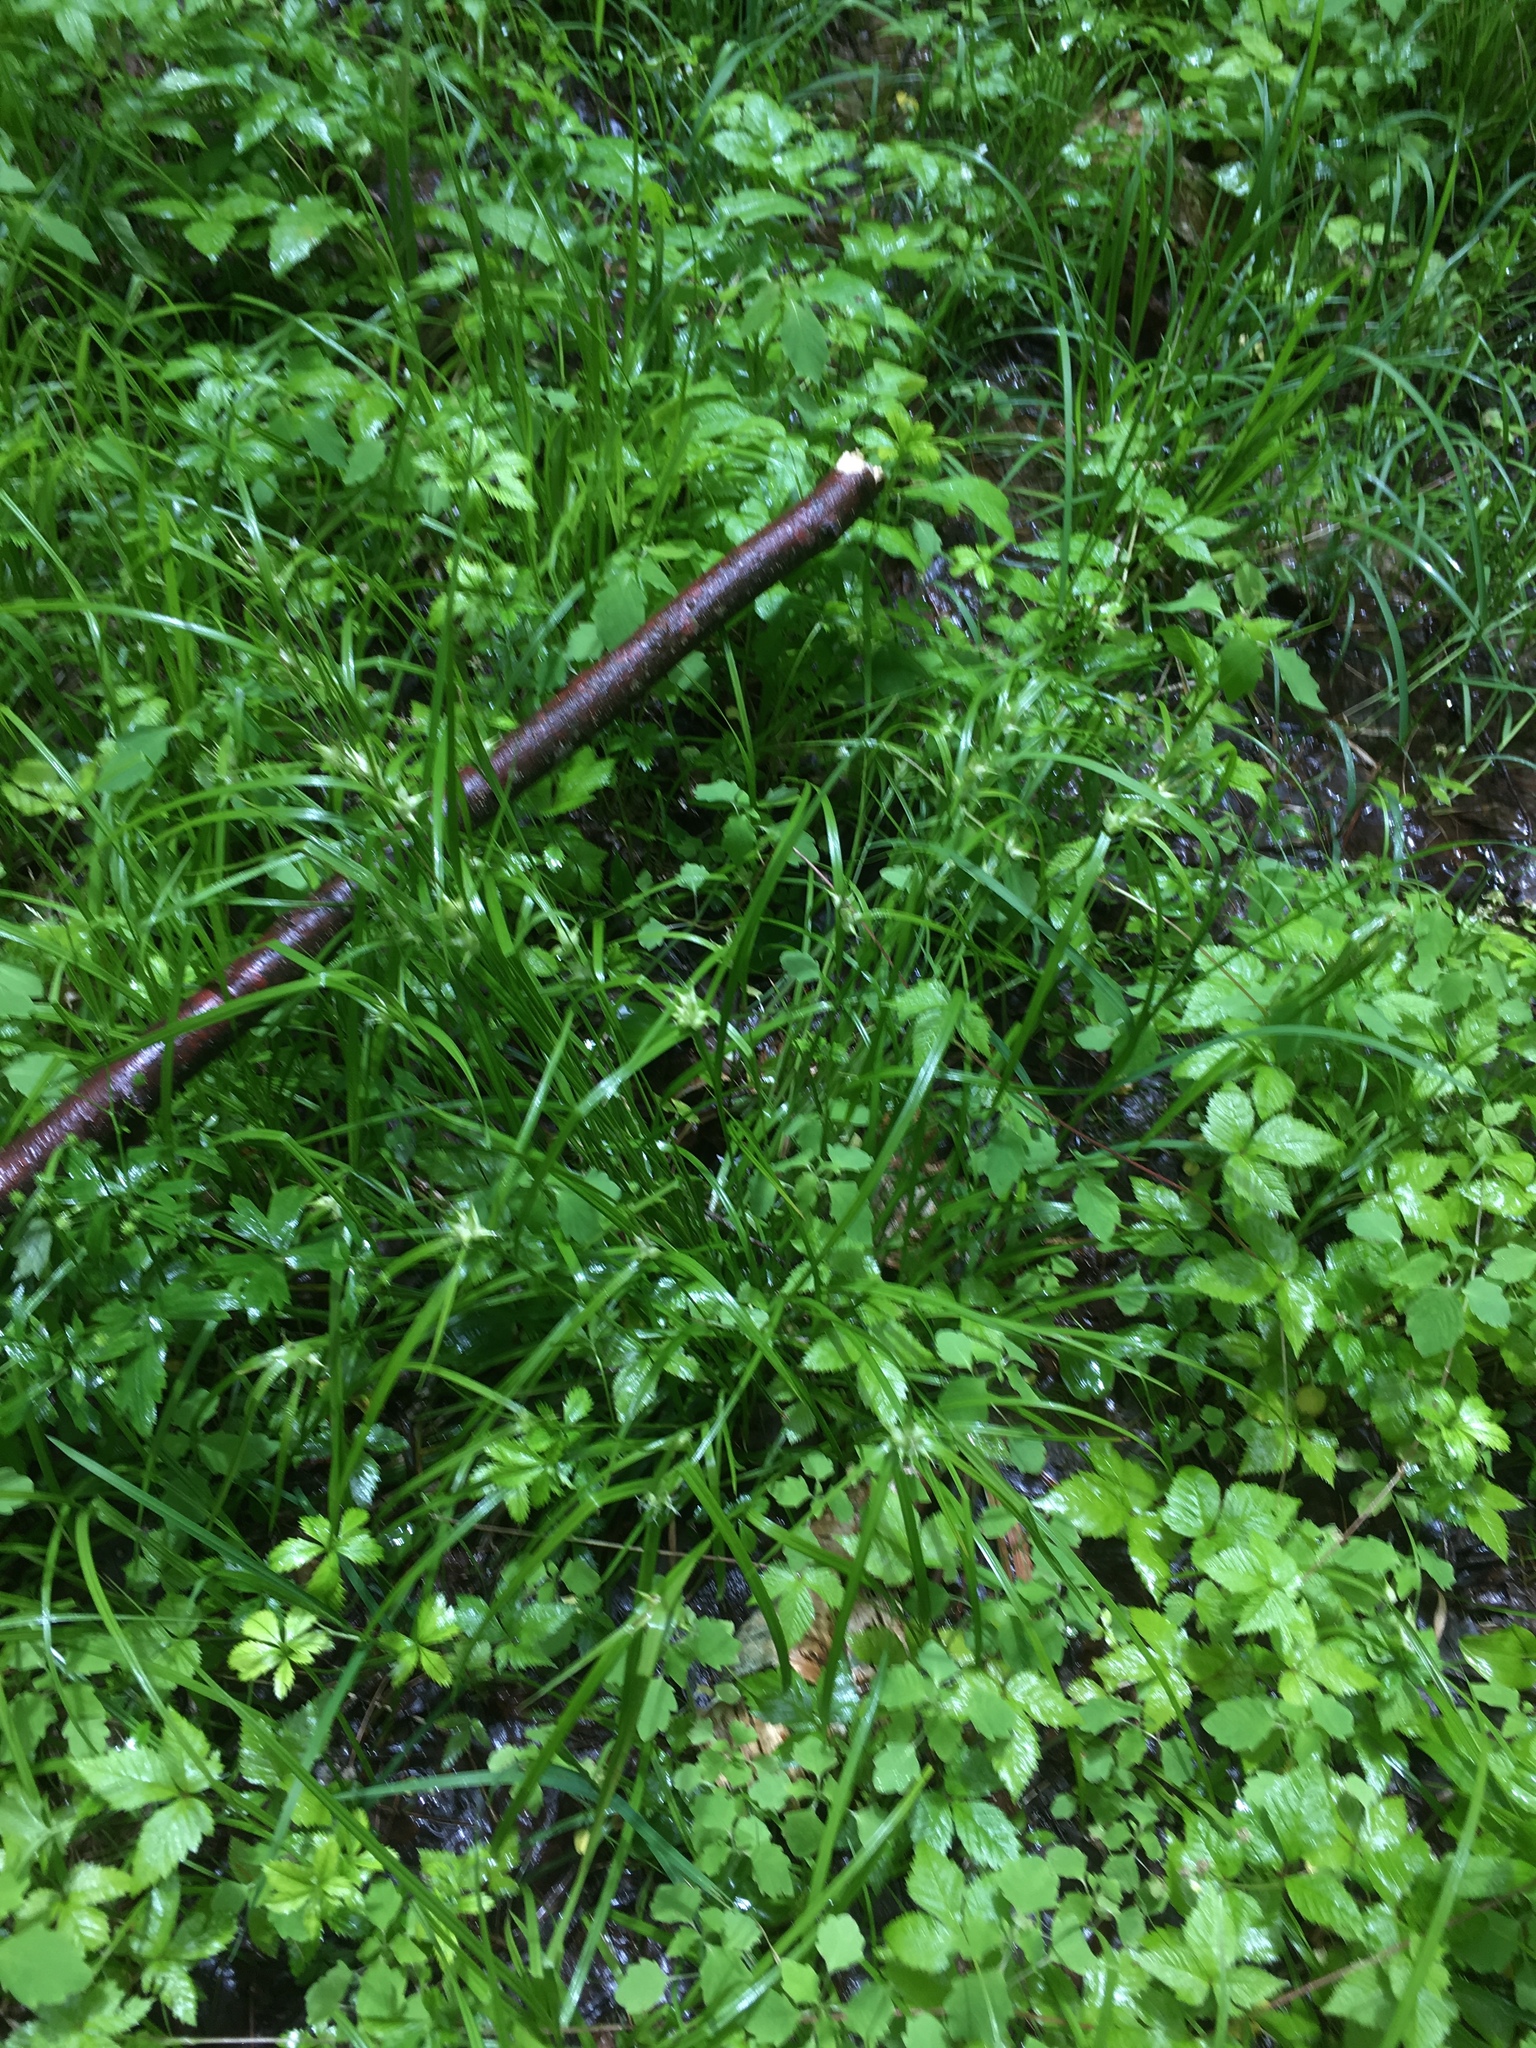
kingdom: Plantae
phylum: Tracheophyta
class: Liliopsida
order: Poales
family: Cyperaceae
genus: Carex
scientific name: Carex intumescens
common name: Greater bladder sedge
